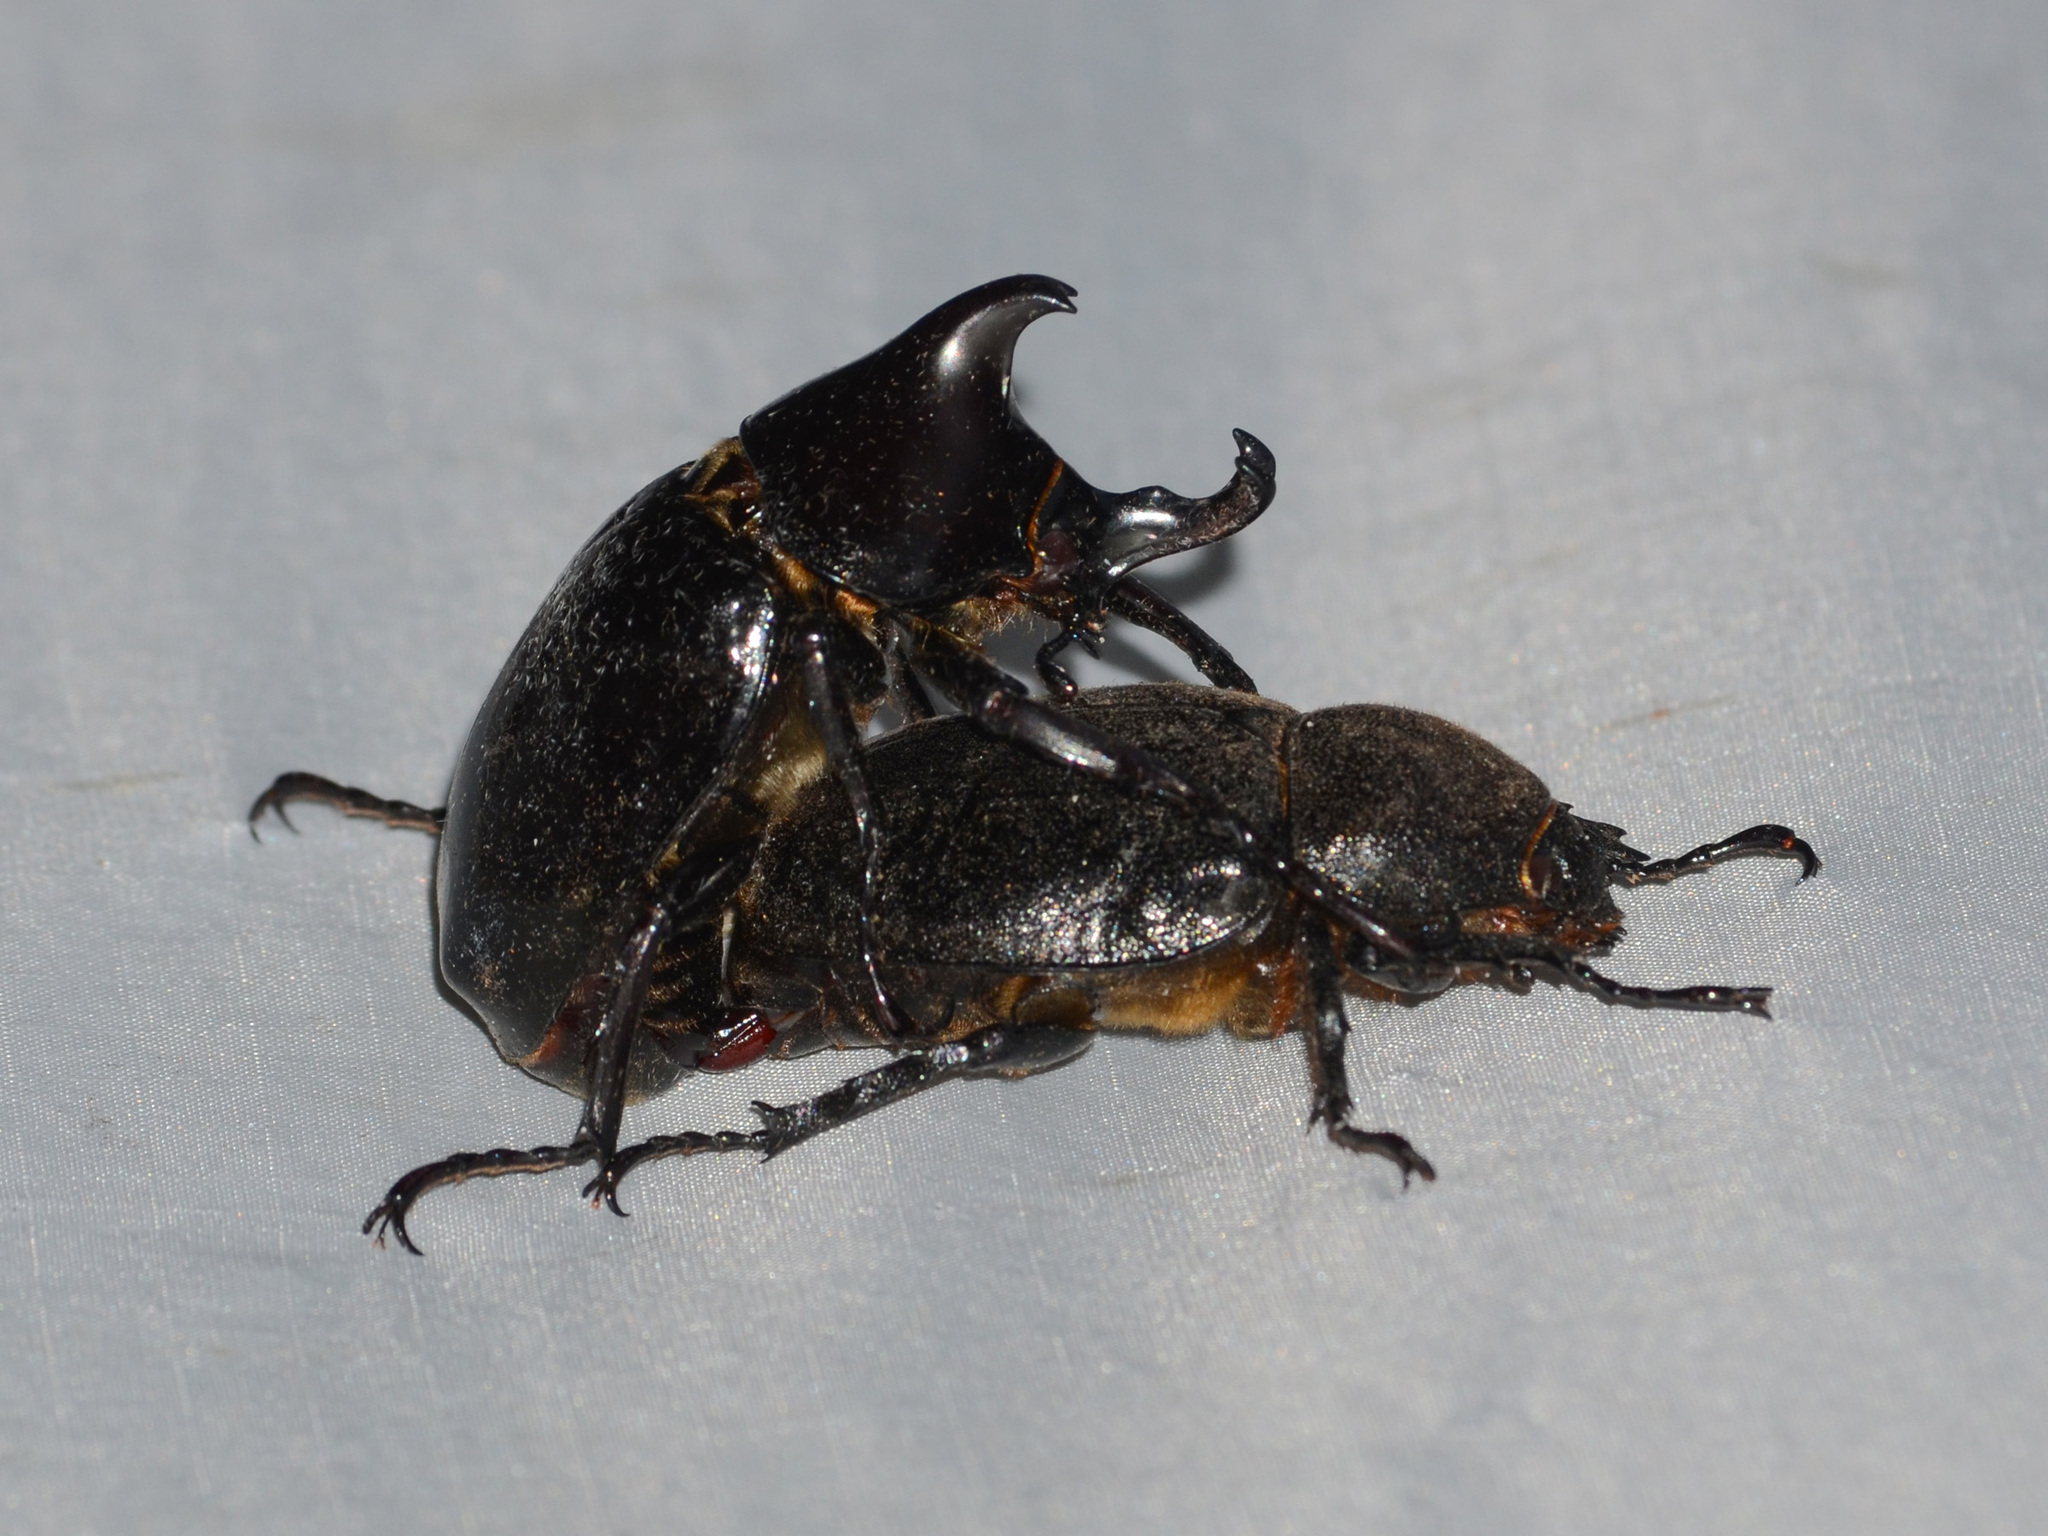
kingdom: Animalia
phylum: Arthropoda
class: Insecta
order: Coleoptera
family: Scarabaeidae
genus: Xylotrupes
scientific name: Xylotrupes sumatrensis
